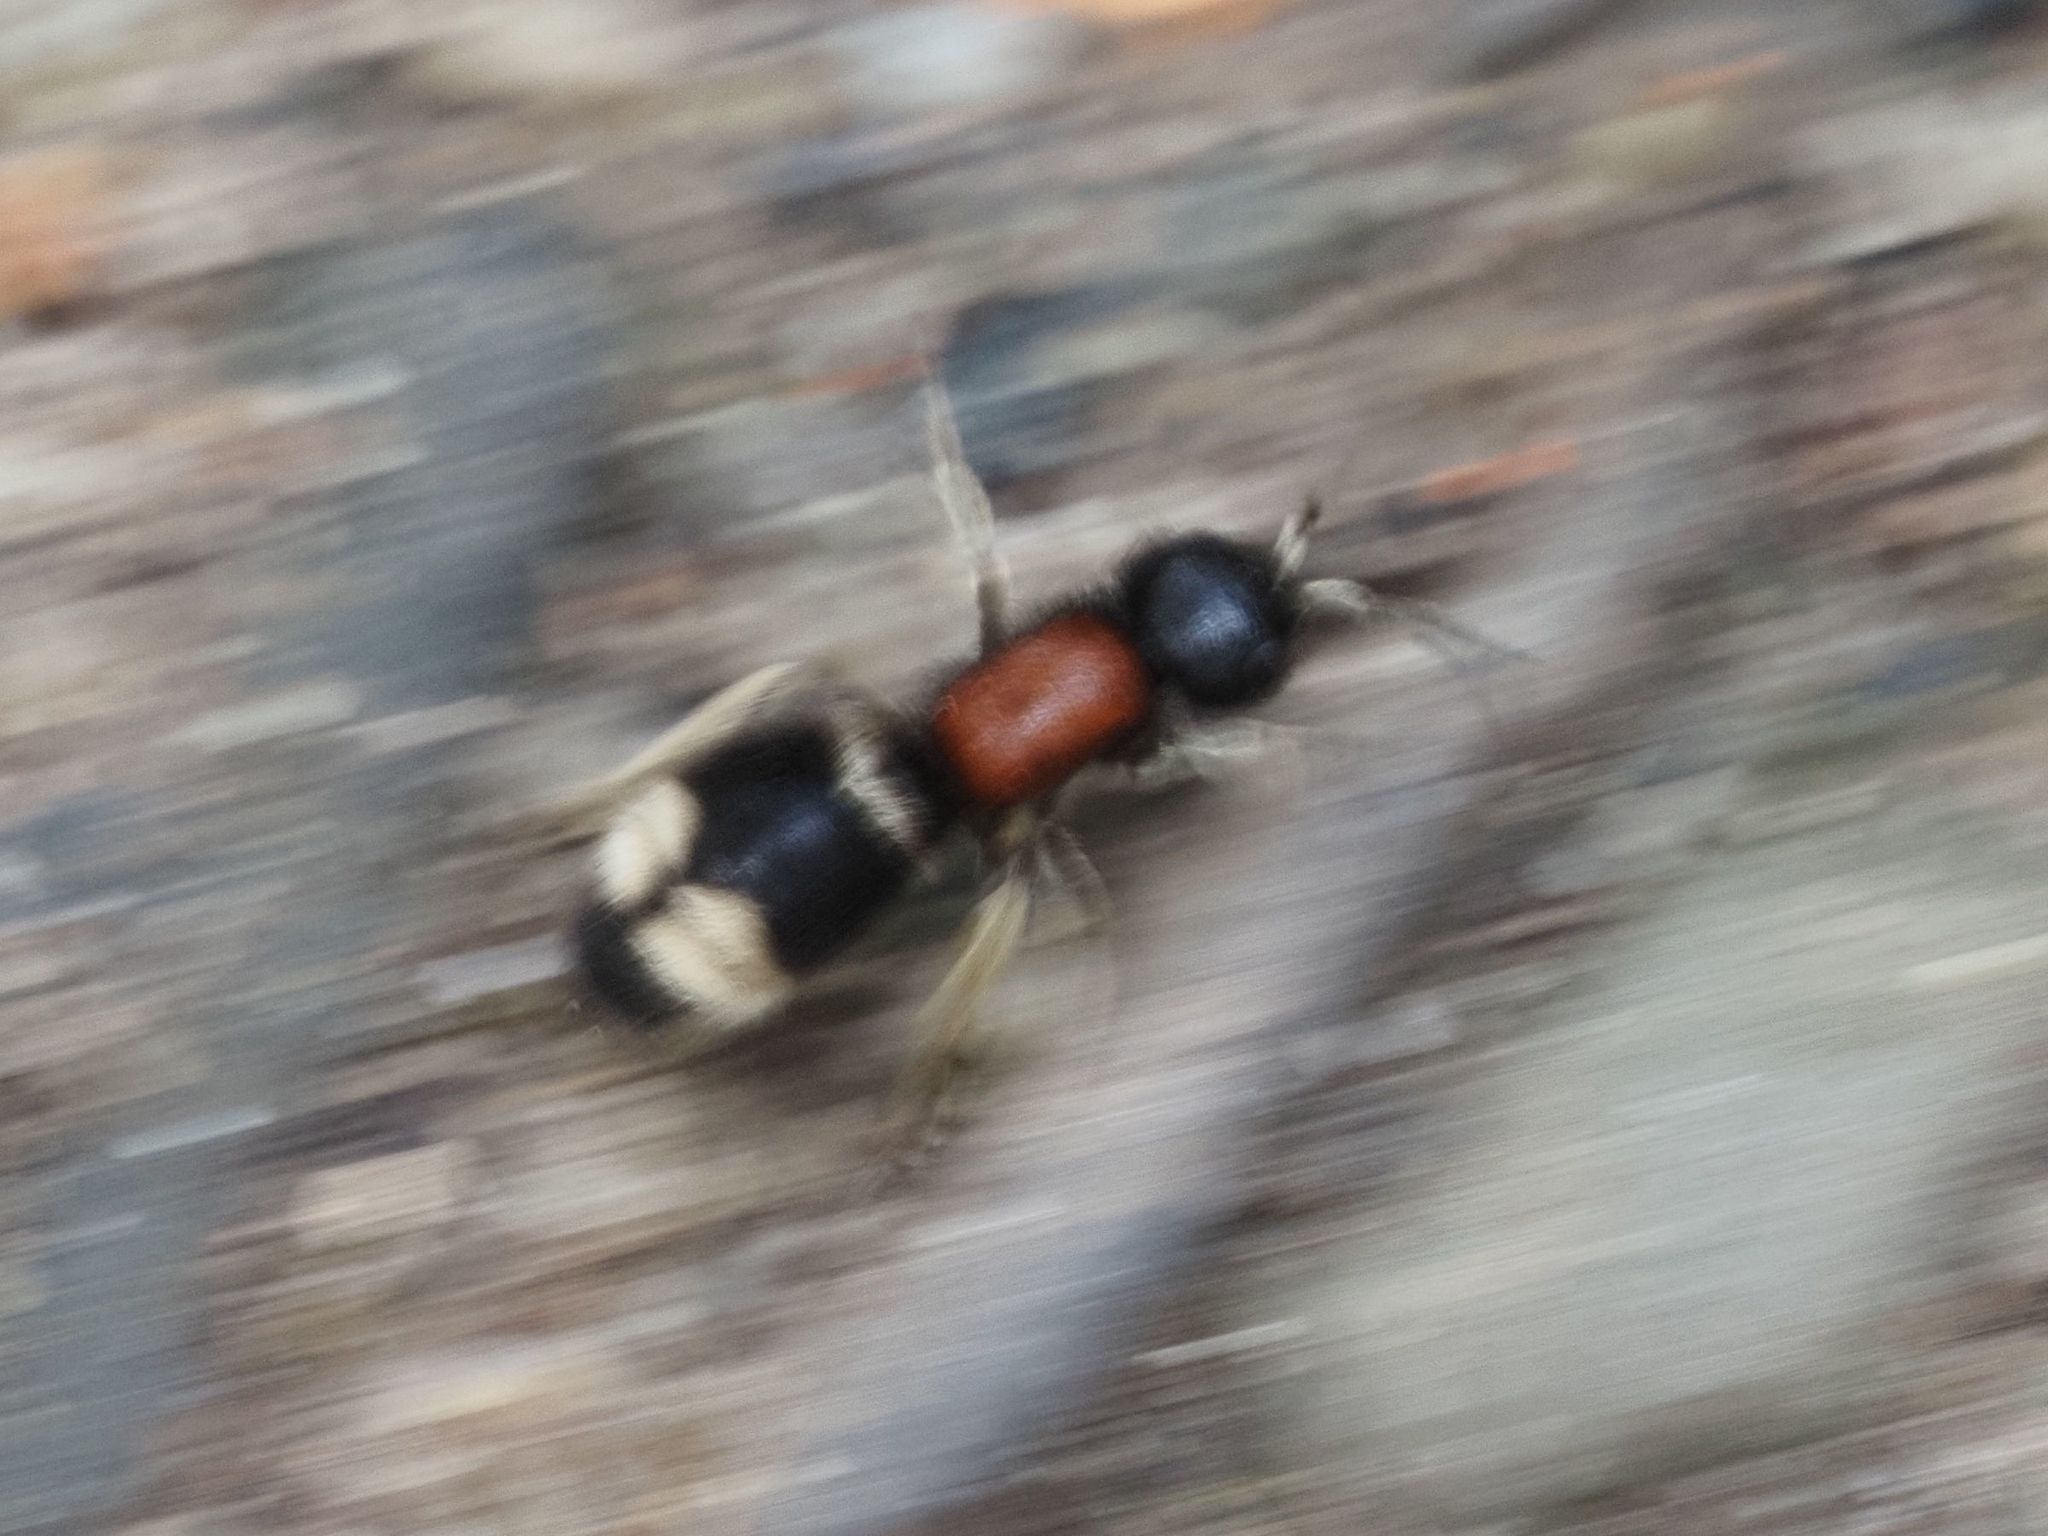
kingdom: Animalia
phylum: Arthropoda
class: Insecta
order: Hymenoptera
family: Mutillidae
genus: Mutilla
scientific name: Mutilla marginata
